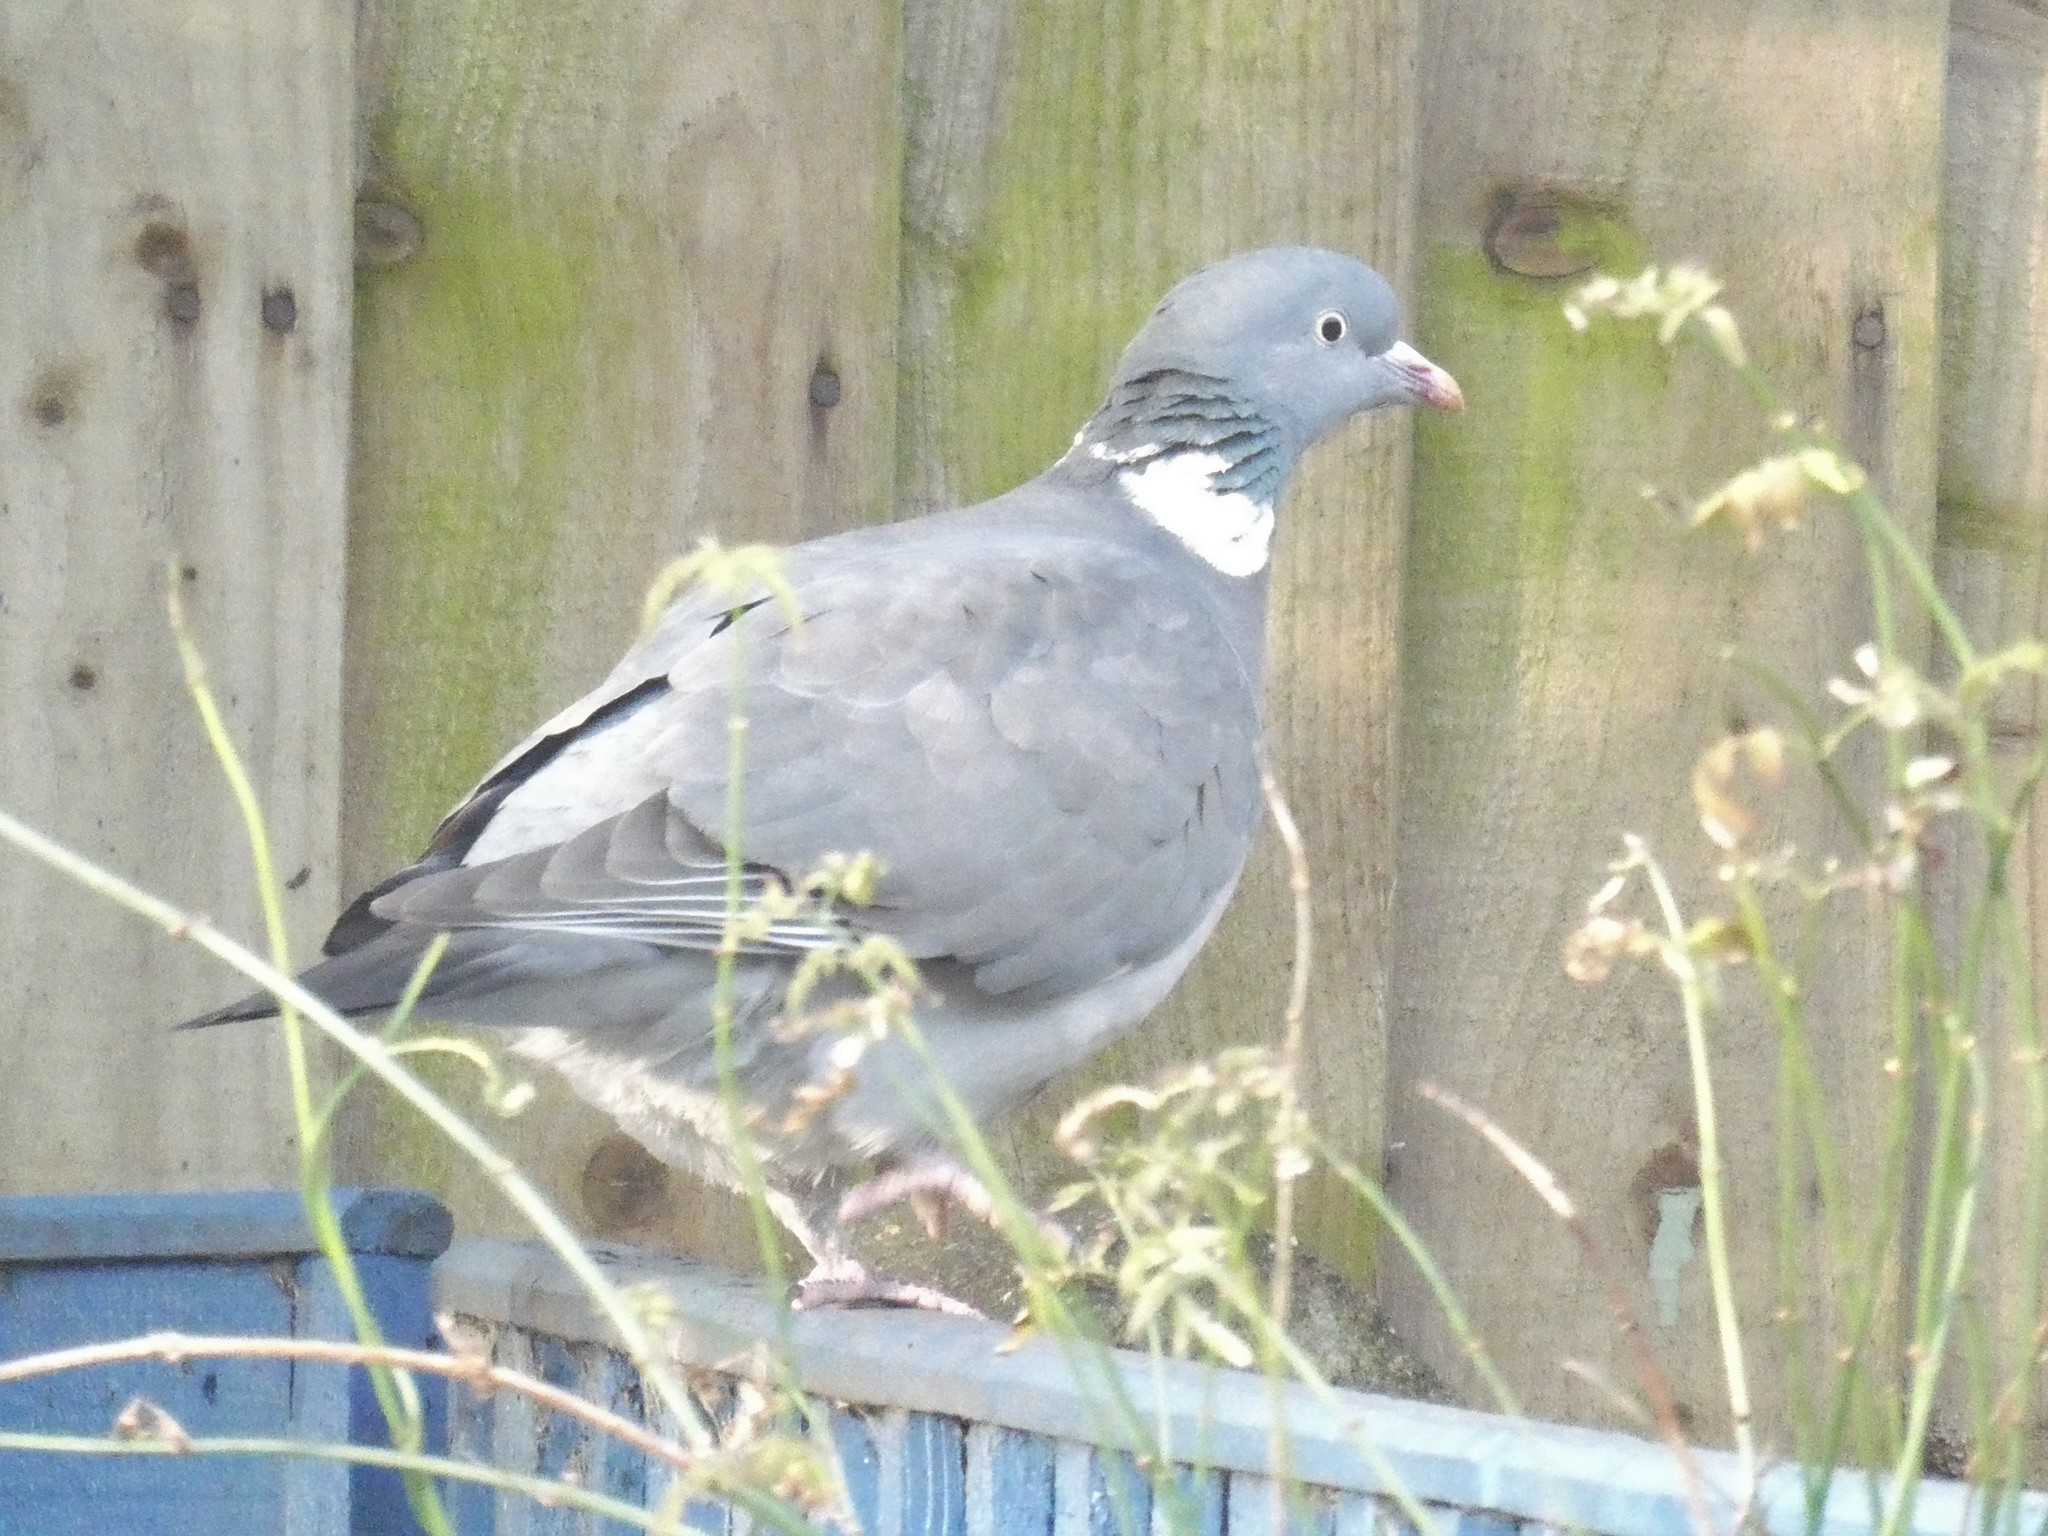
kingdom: Animalia
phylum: Chordata
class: Aves
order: Columbiformes
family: Columbidae
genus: Columba
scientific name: Columba palumbus
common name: Common wood pigeon
